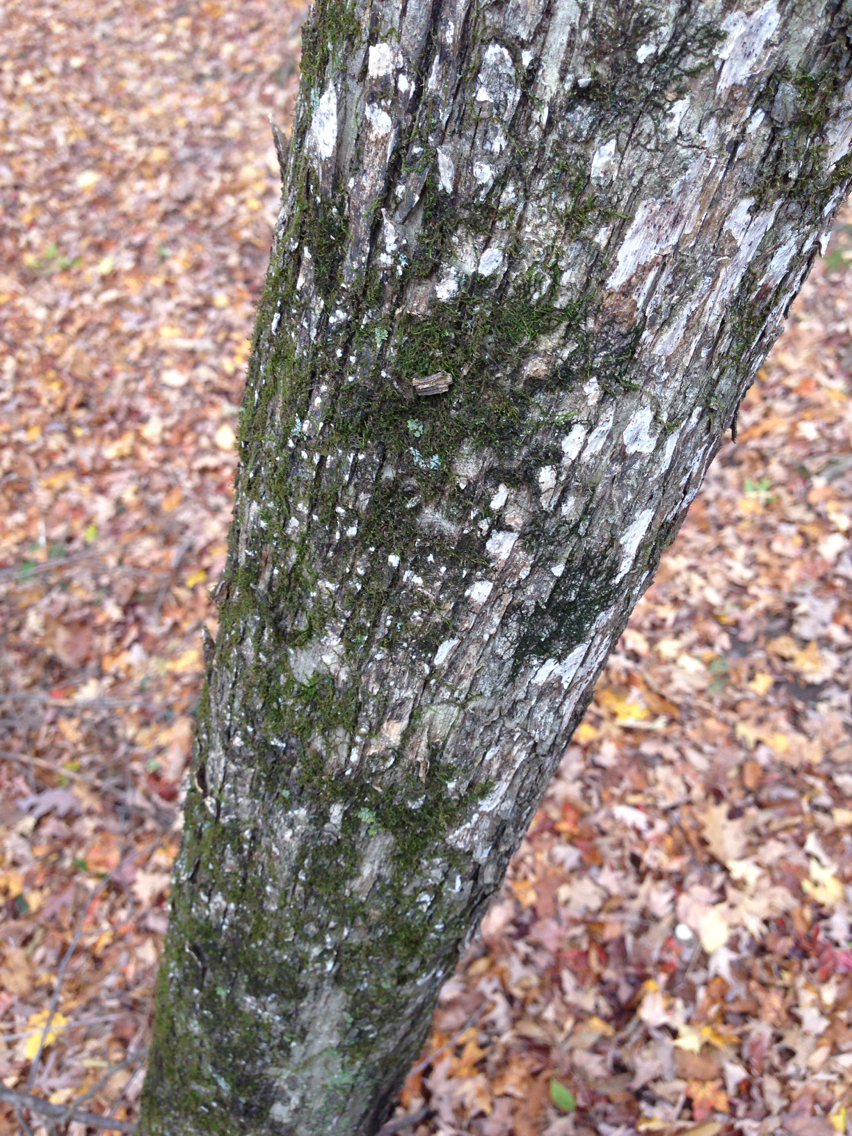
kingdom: Plantae
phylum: Tracheophyta
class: Magnoliopsida
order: Fagales
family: Betulaceae
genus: Ostrya
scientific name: Ostrya virginiana
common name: Ironwood
